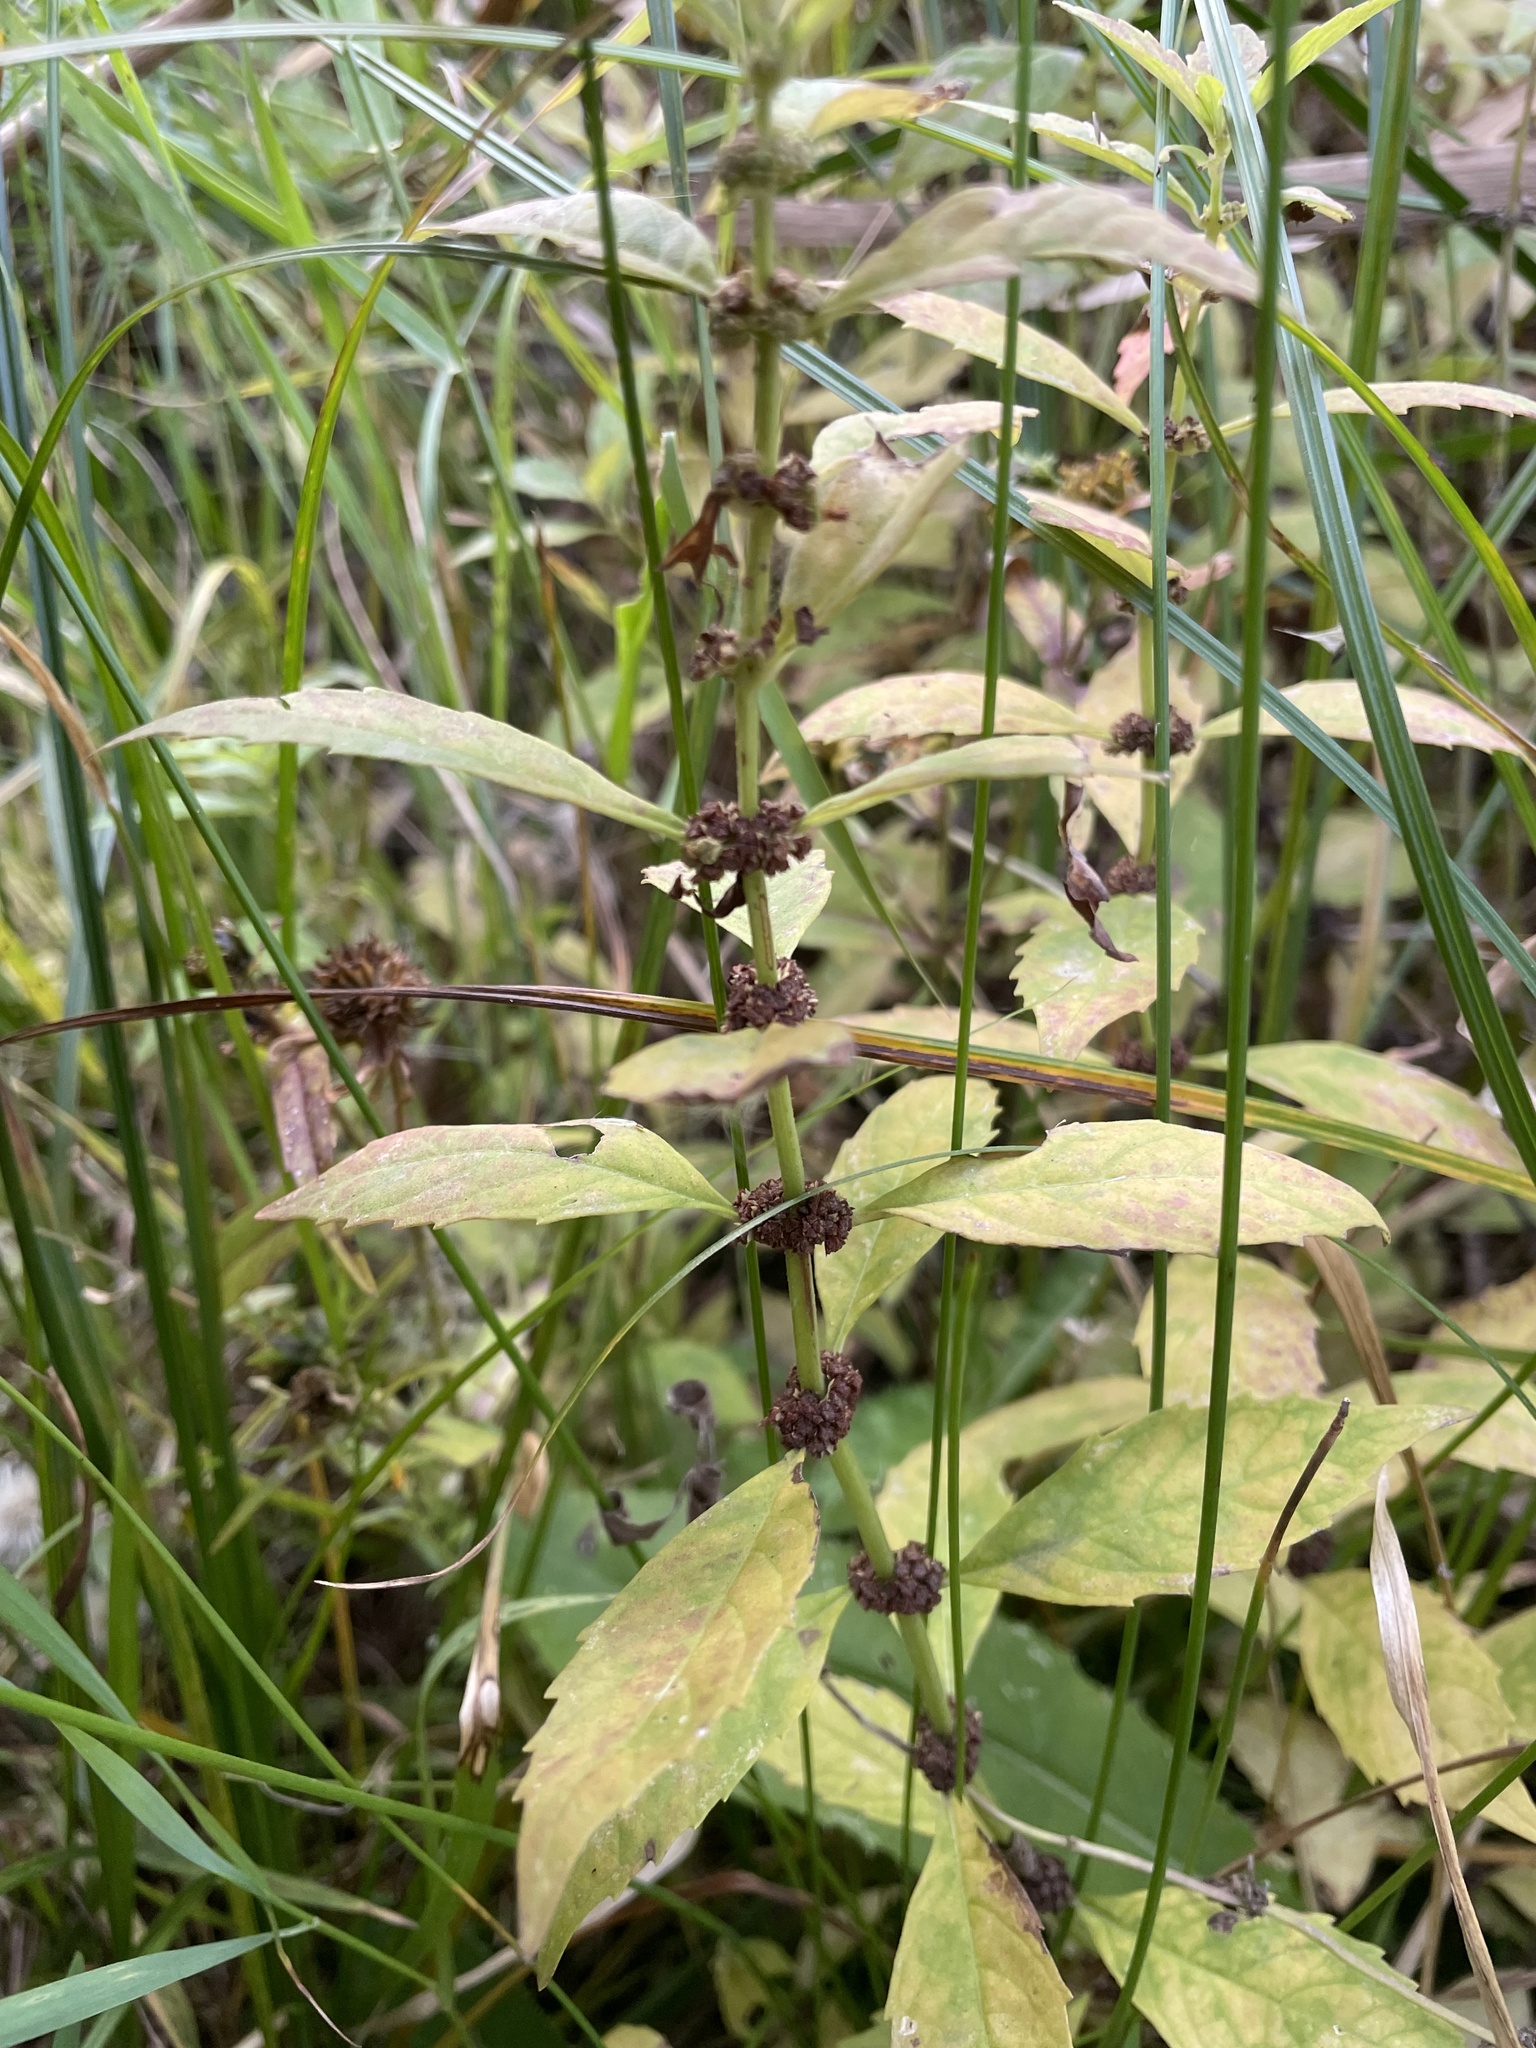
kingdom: Plantae
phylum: Tracheophyta
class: Magnoliopsida
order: Lamiales
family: Lamiaceae
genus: Lycopus
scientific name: Lycopus uniflorus
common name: Northern bugleweed
